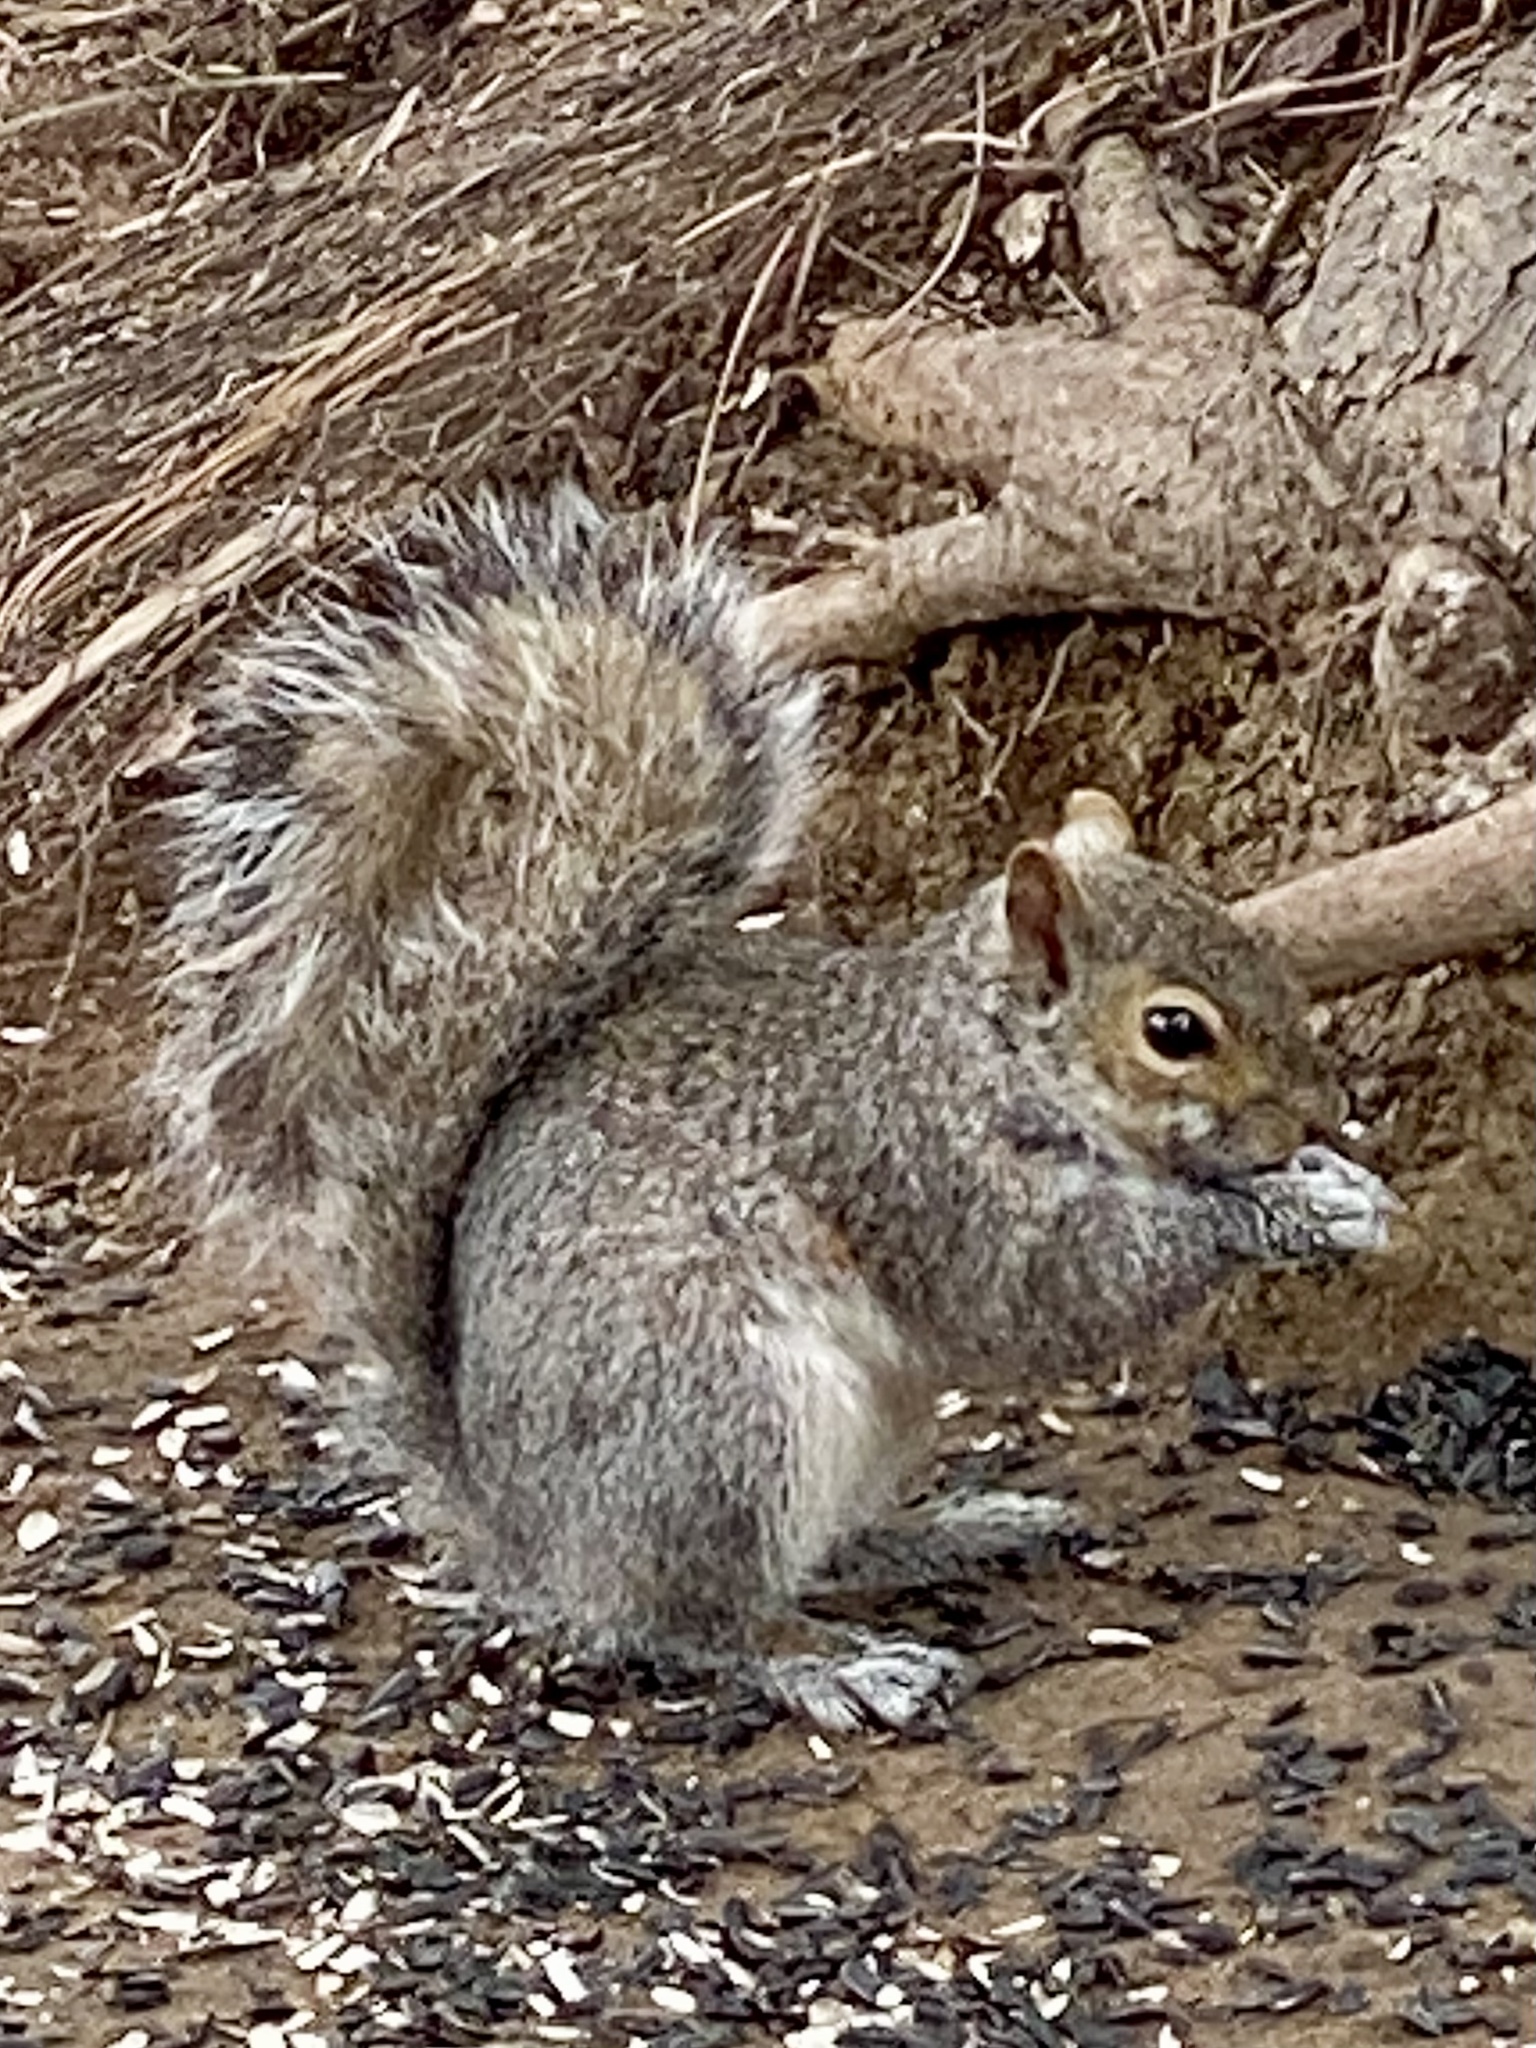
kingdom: Animalia
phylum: Chordata
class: Mammalia
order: Rodentia
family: Sciuridae
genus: Sciurus
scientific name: Sciurus carolinensis
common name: Eastern gray squirrel
